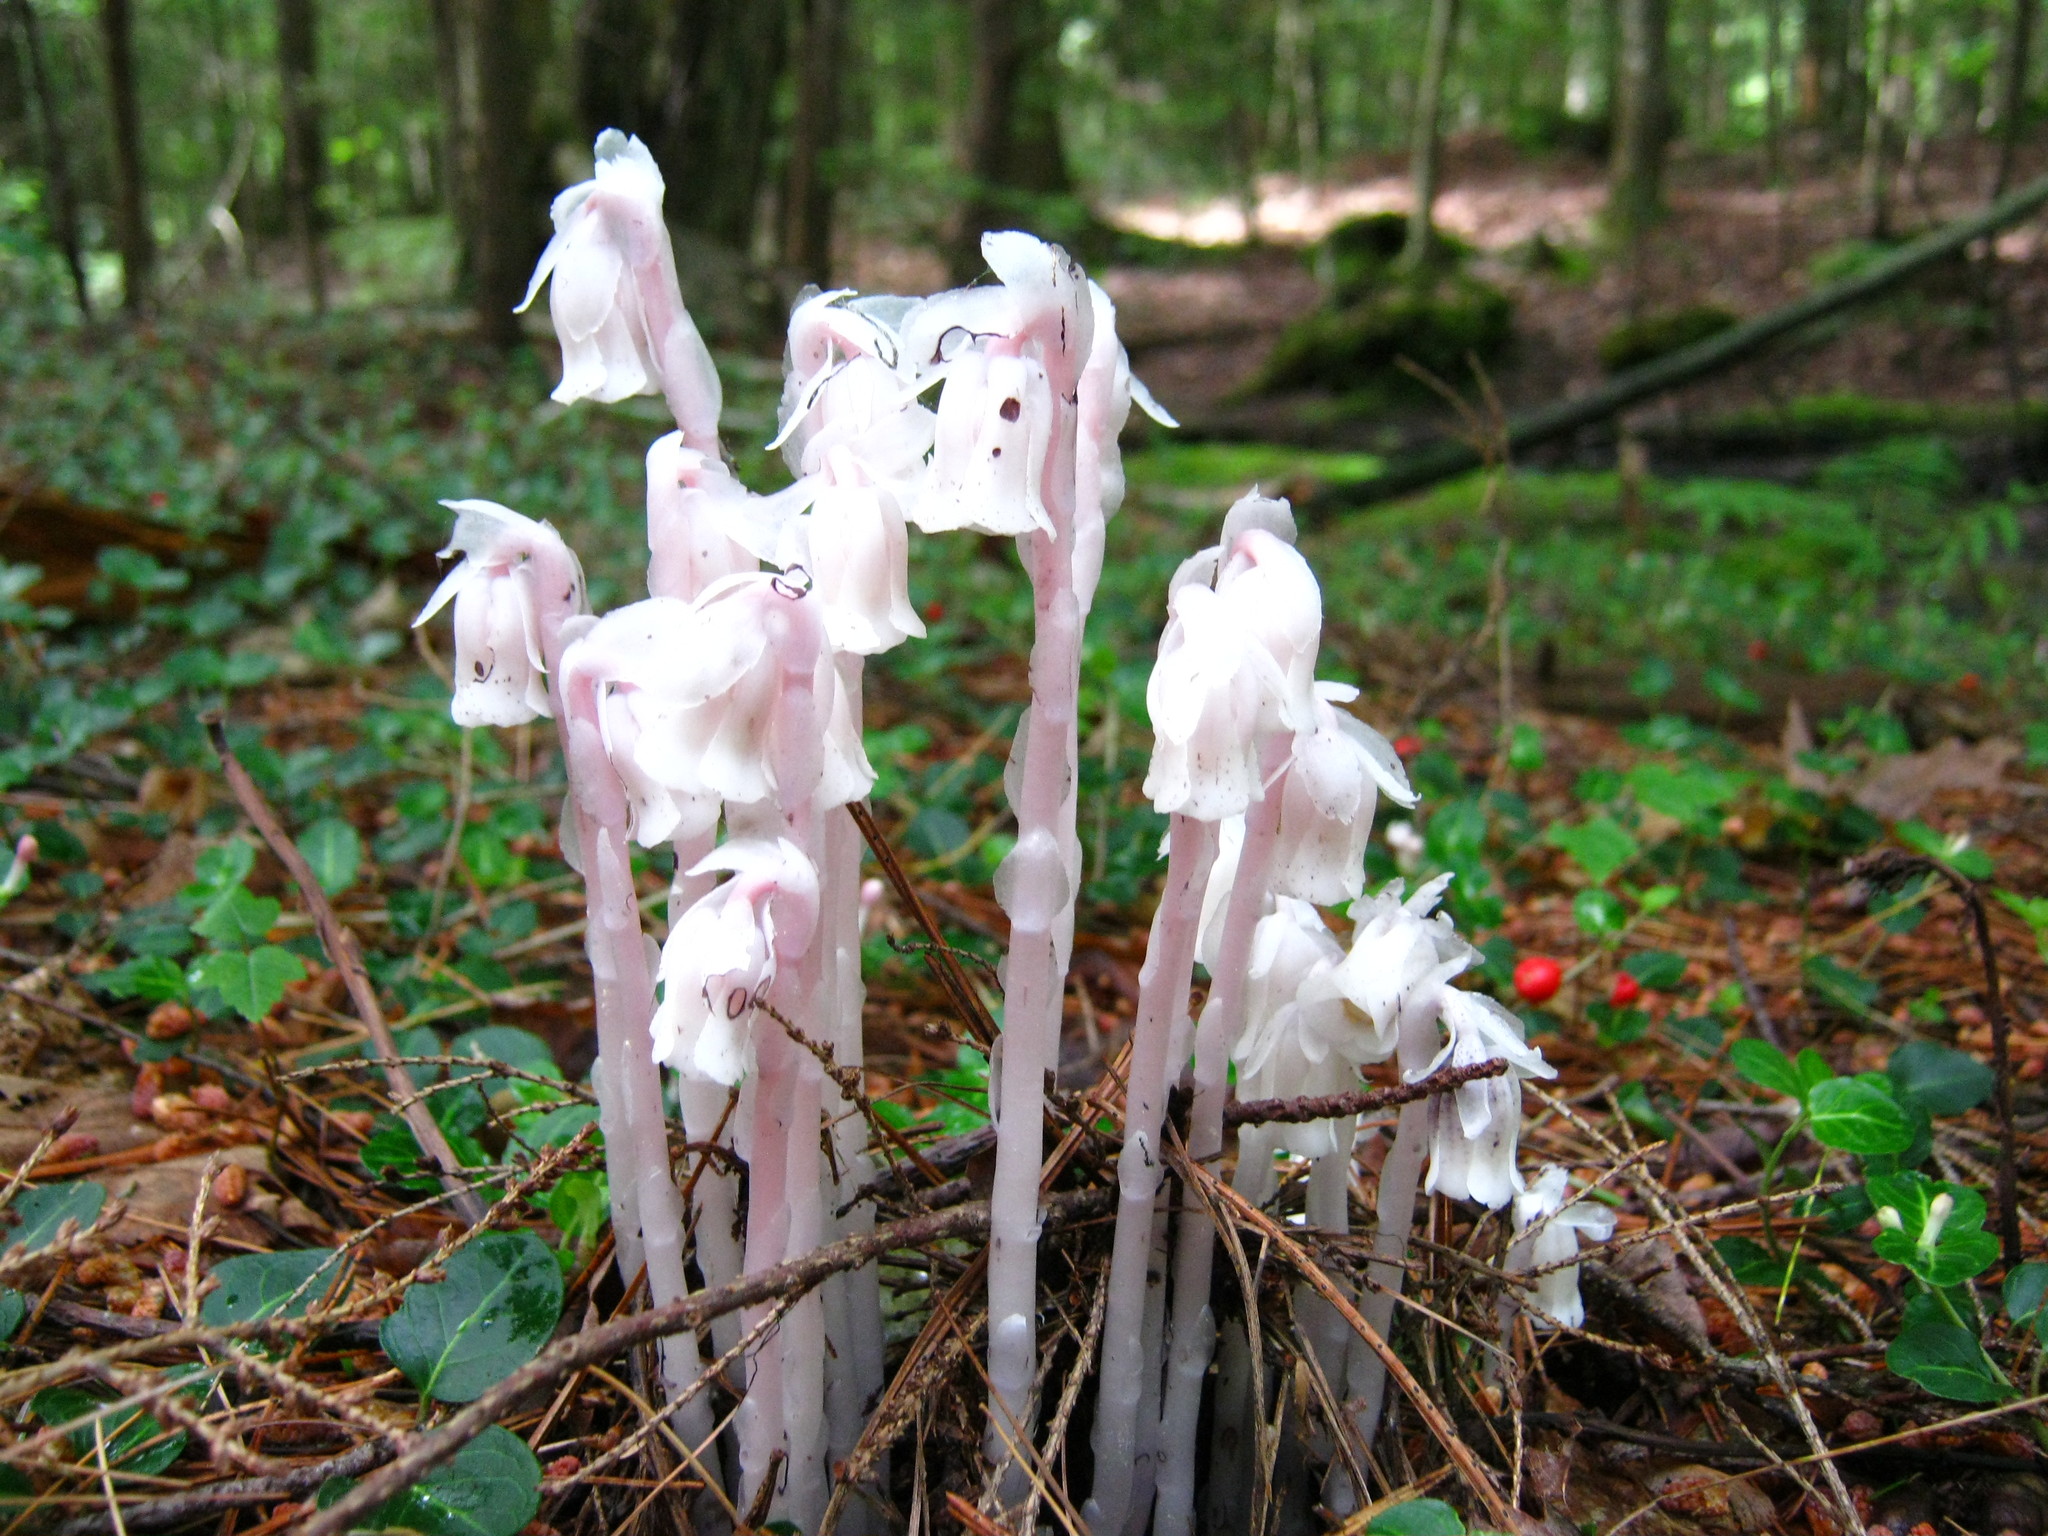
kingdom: Plantae
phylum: Tracheophyta
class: Magnoliopsida
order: Ericales
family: Ericaceae
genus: Monotropa
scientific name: Monotropa uniflora
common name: Convulsion root
